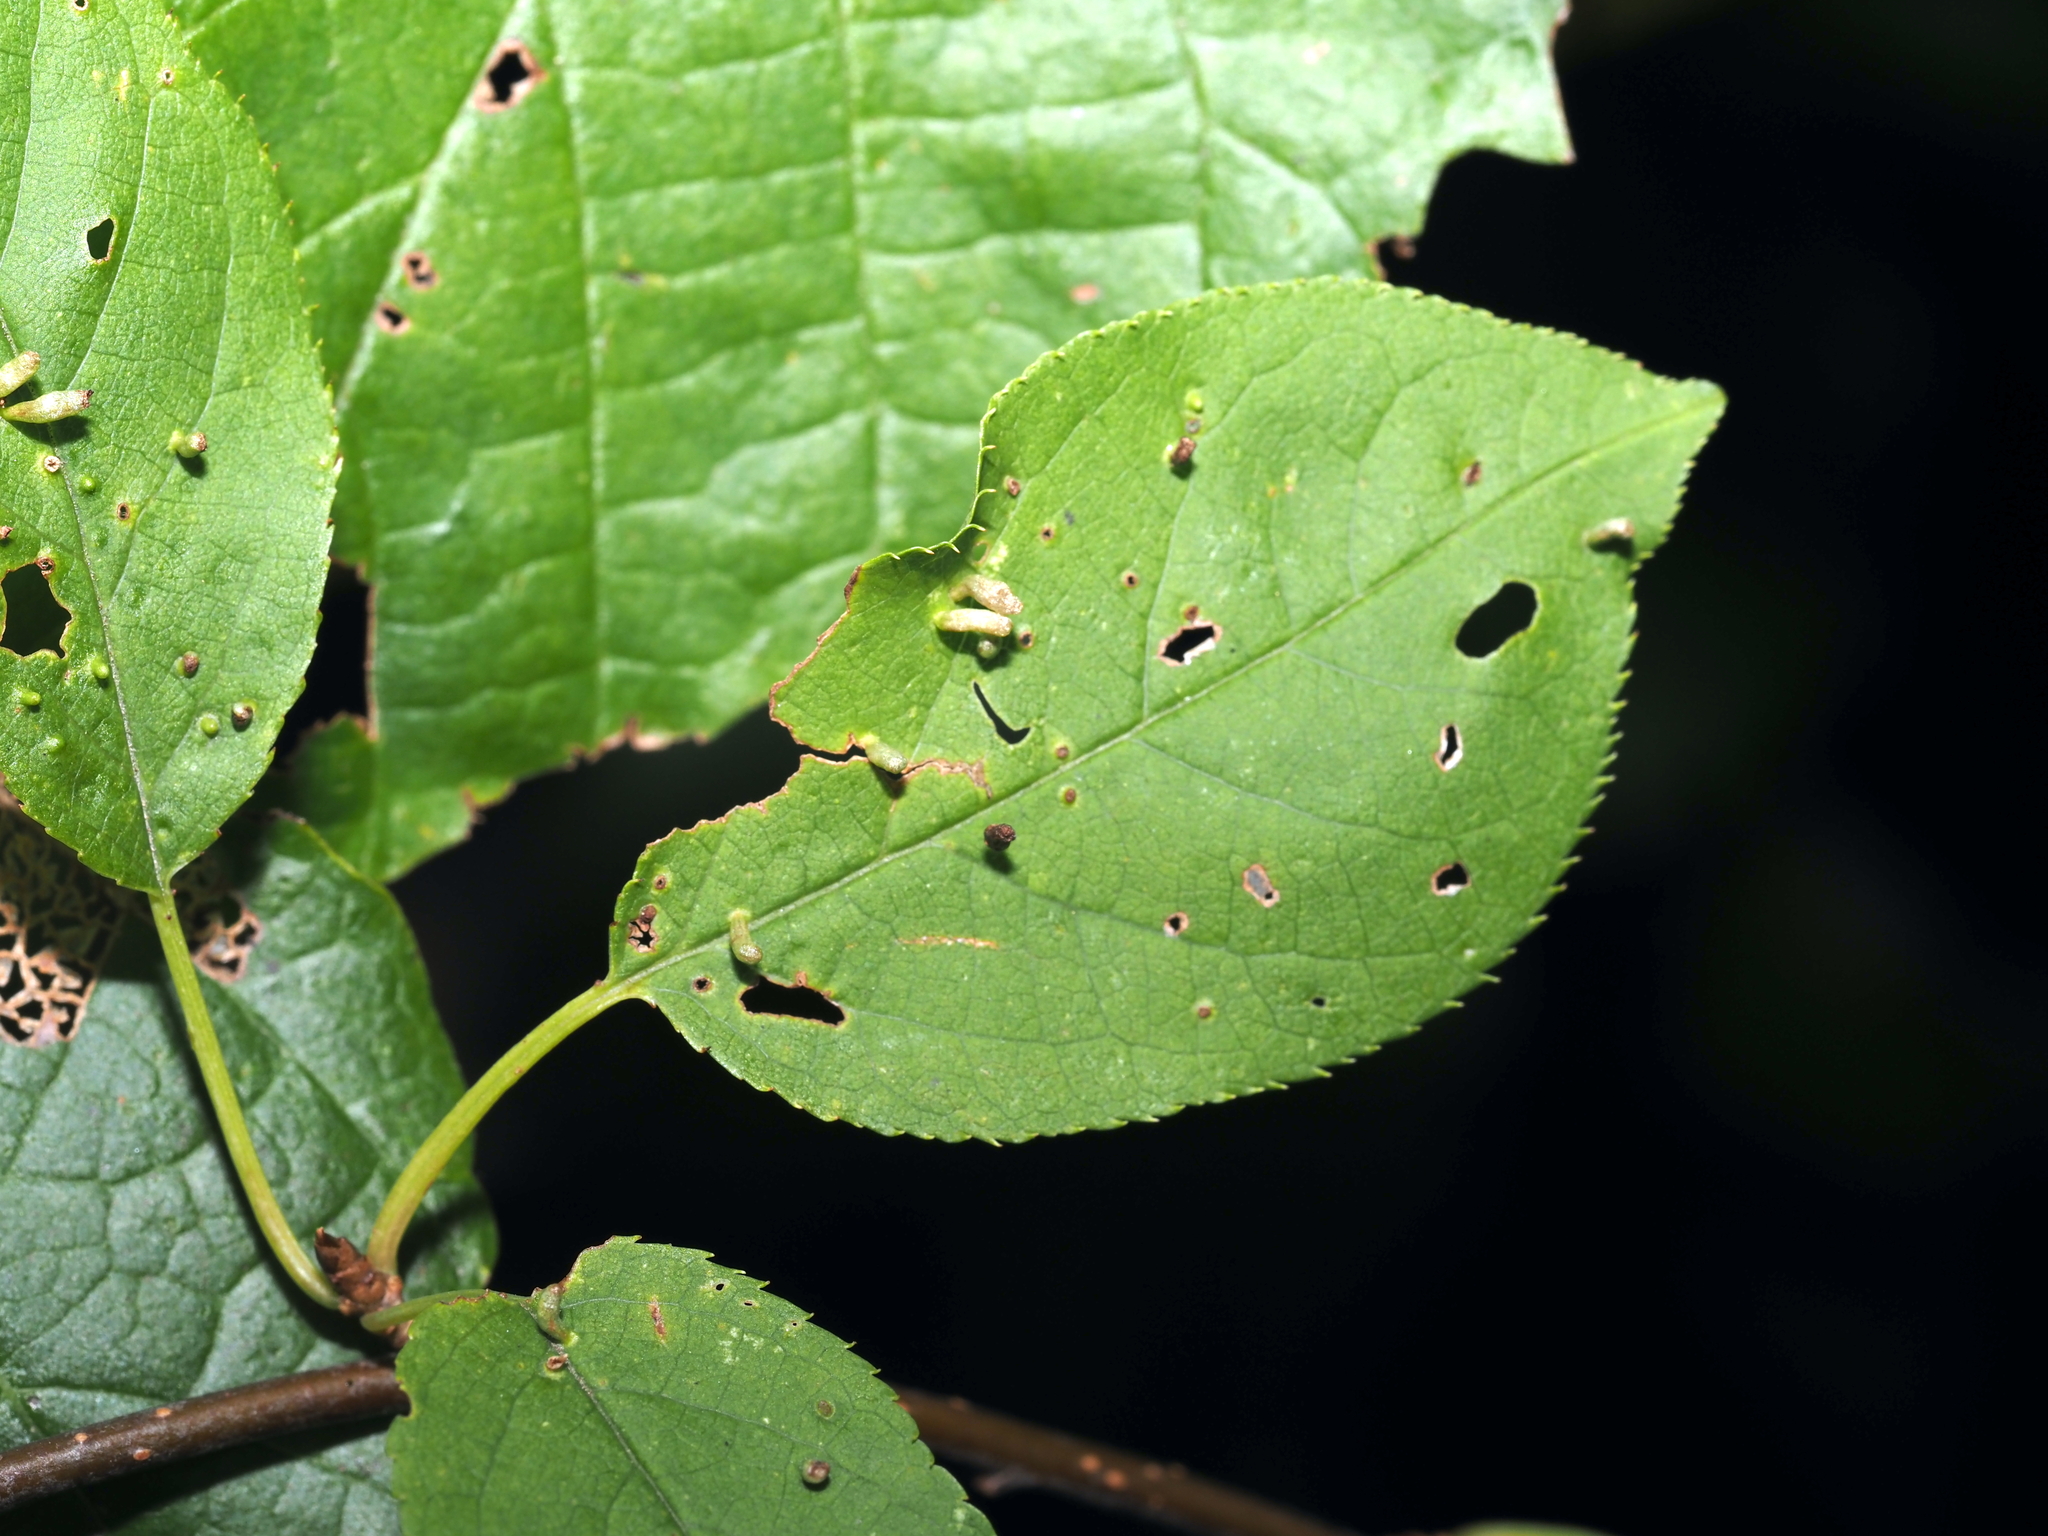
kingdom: Animalia
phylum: Arthropoda
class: Arachnida
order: Trombidiformes
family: Eriophyidae
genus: Eriophyes
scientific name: Eriophyes emarginatae
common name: Plum leaf gall mite
